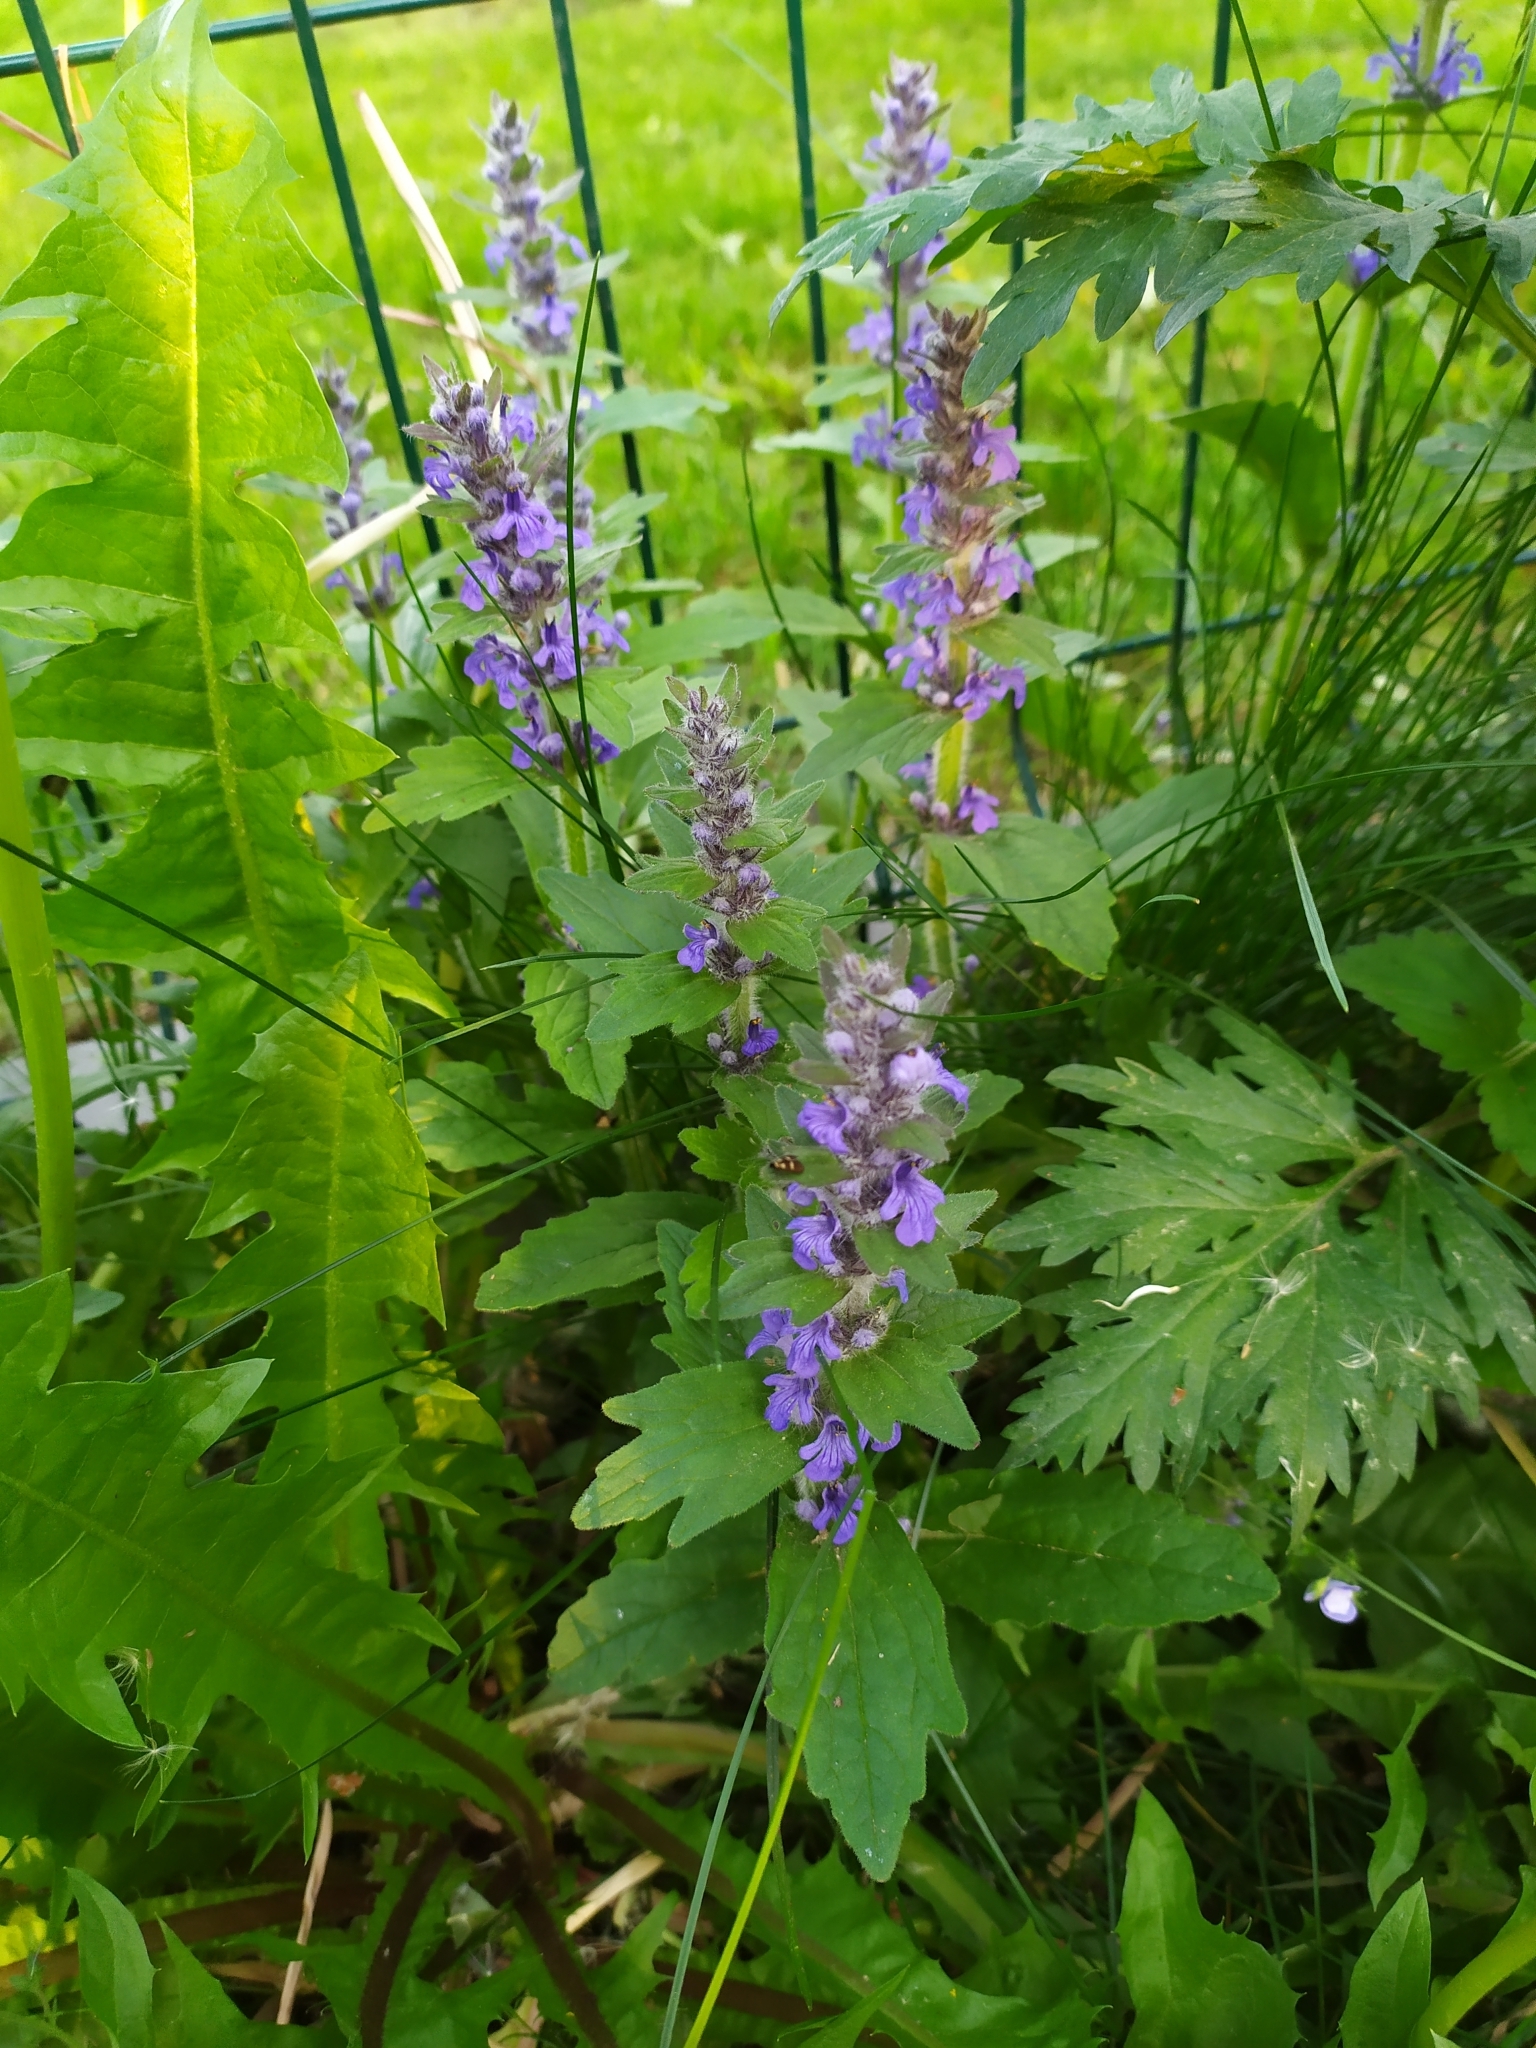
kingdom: Plantae
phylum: Tracheophyta
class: Magnoliopsida
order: Lamiales
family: Lamiaceae
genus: Ajuga
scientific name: Ajuga genevensis
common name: Blue bugle
